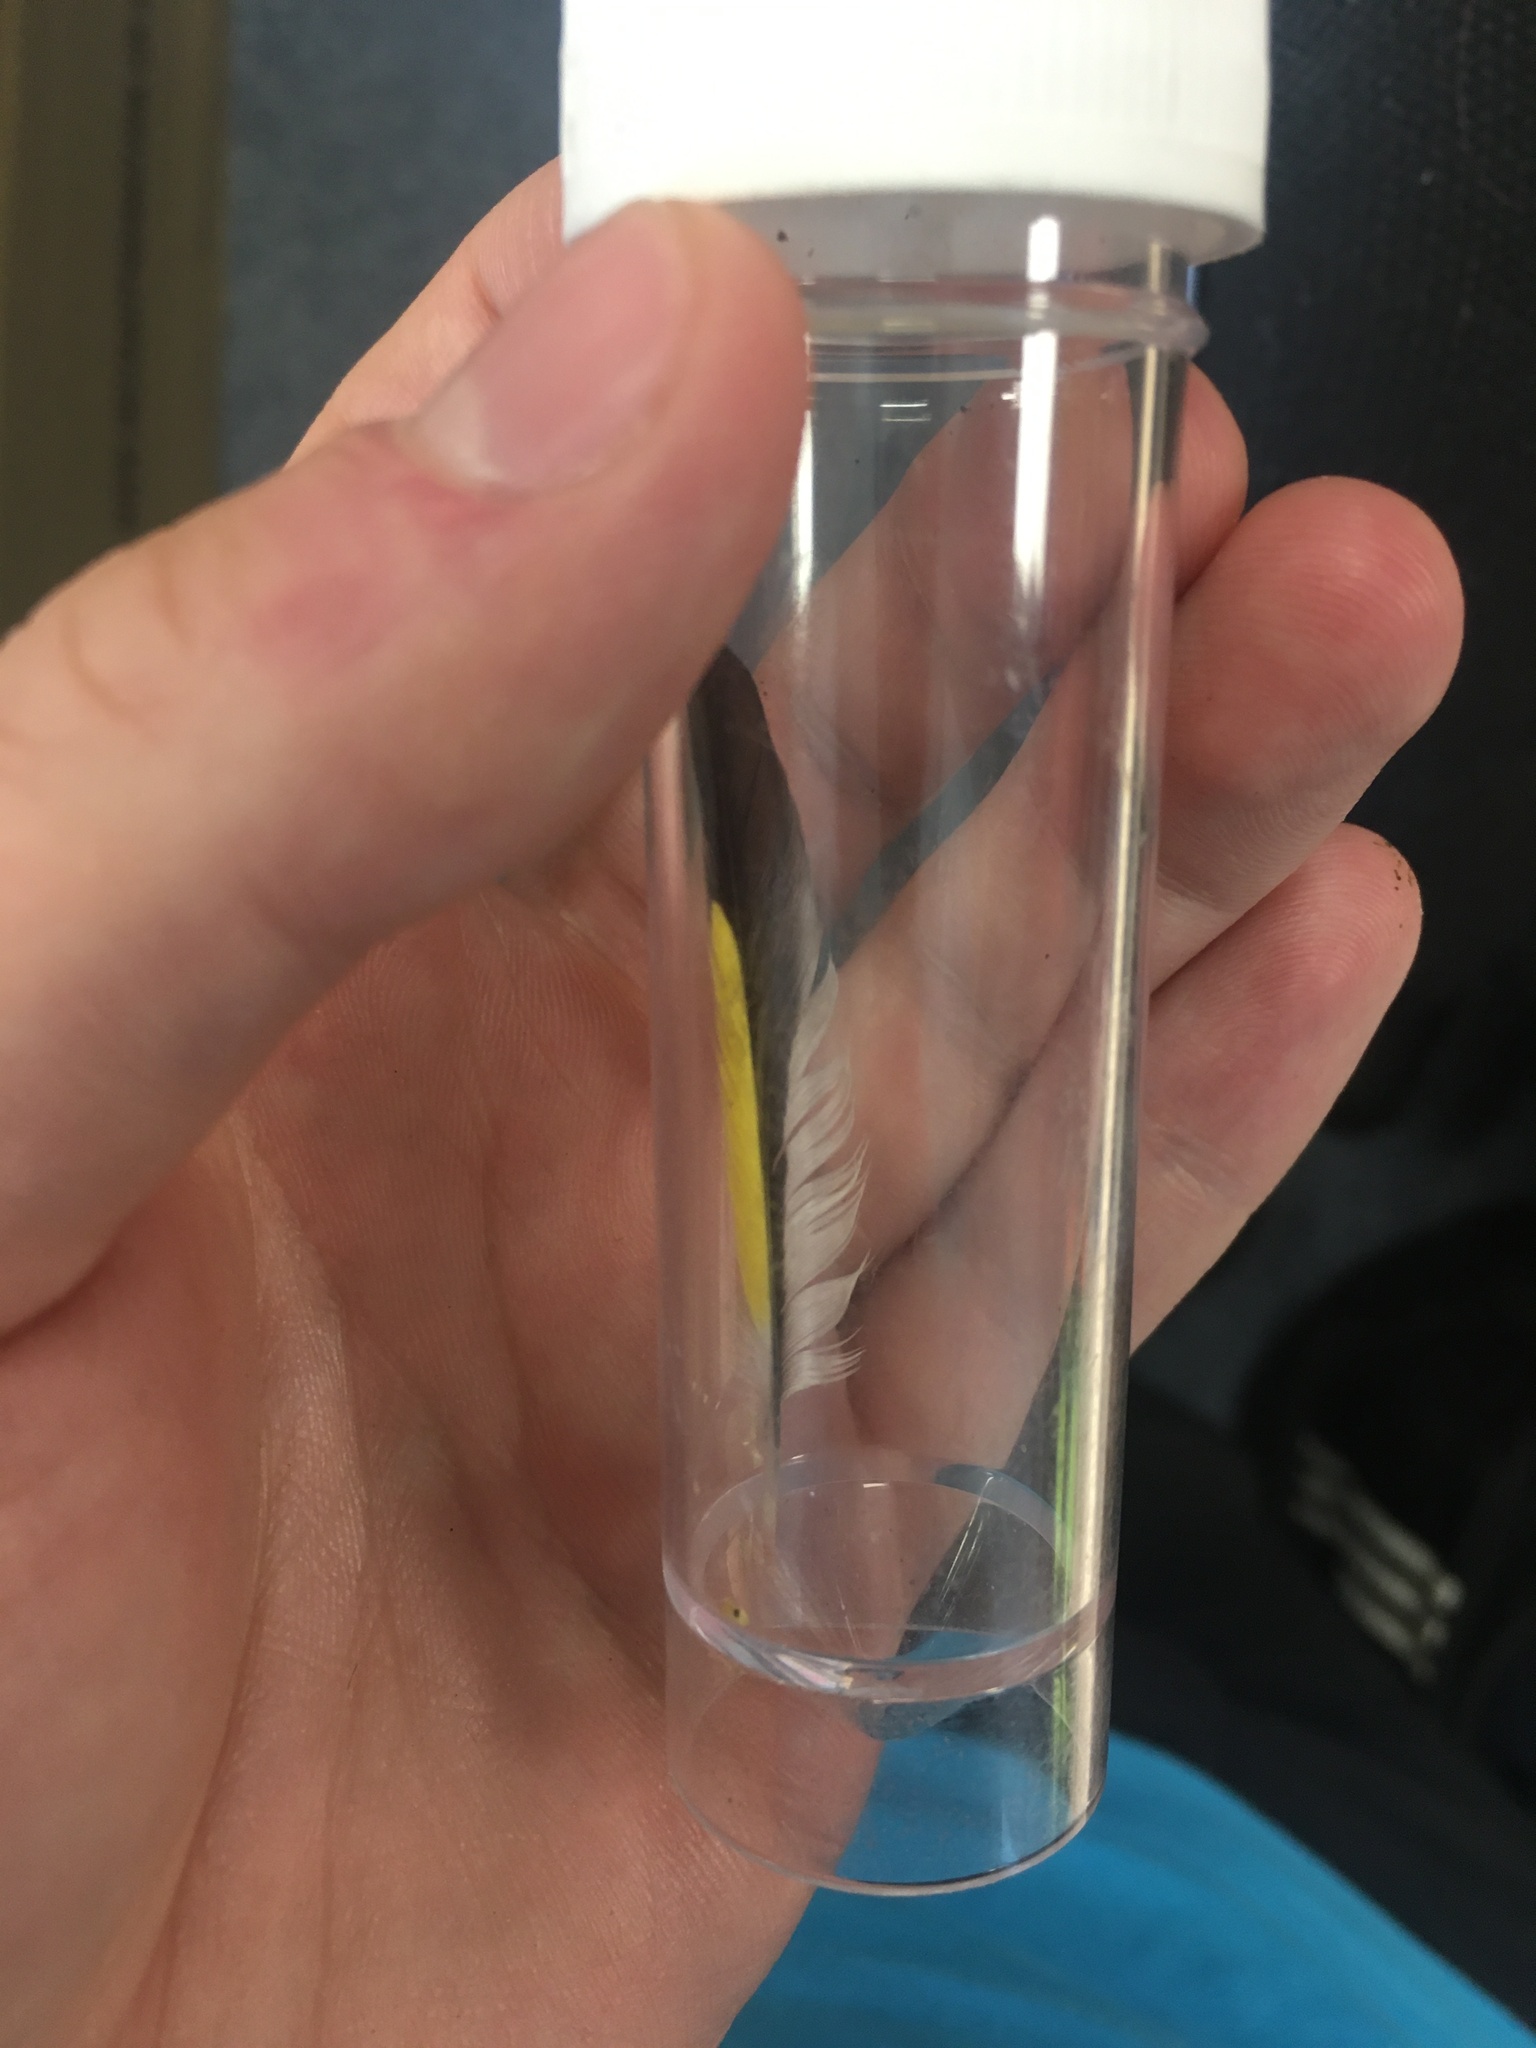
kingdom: Animalia
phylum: Chordata
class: Aves
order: Passeriformes
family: Fringillidae
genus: Carduelis
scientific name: Carduelis carduelis
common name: European goldfinch
